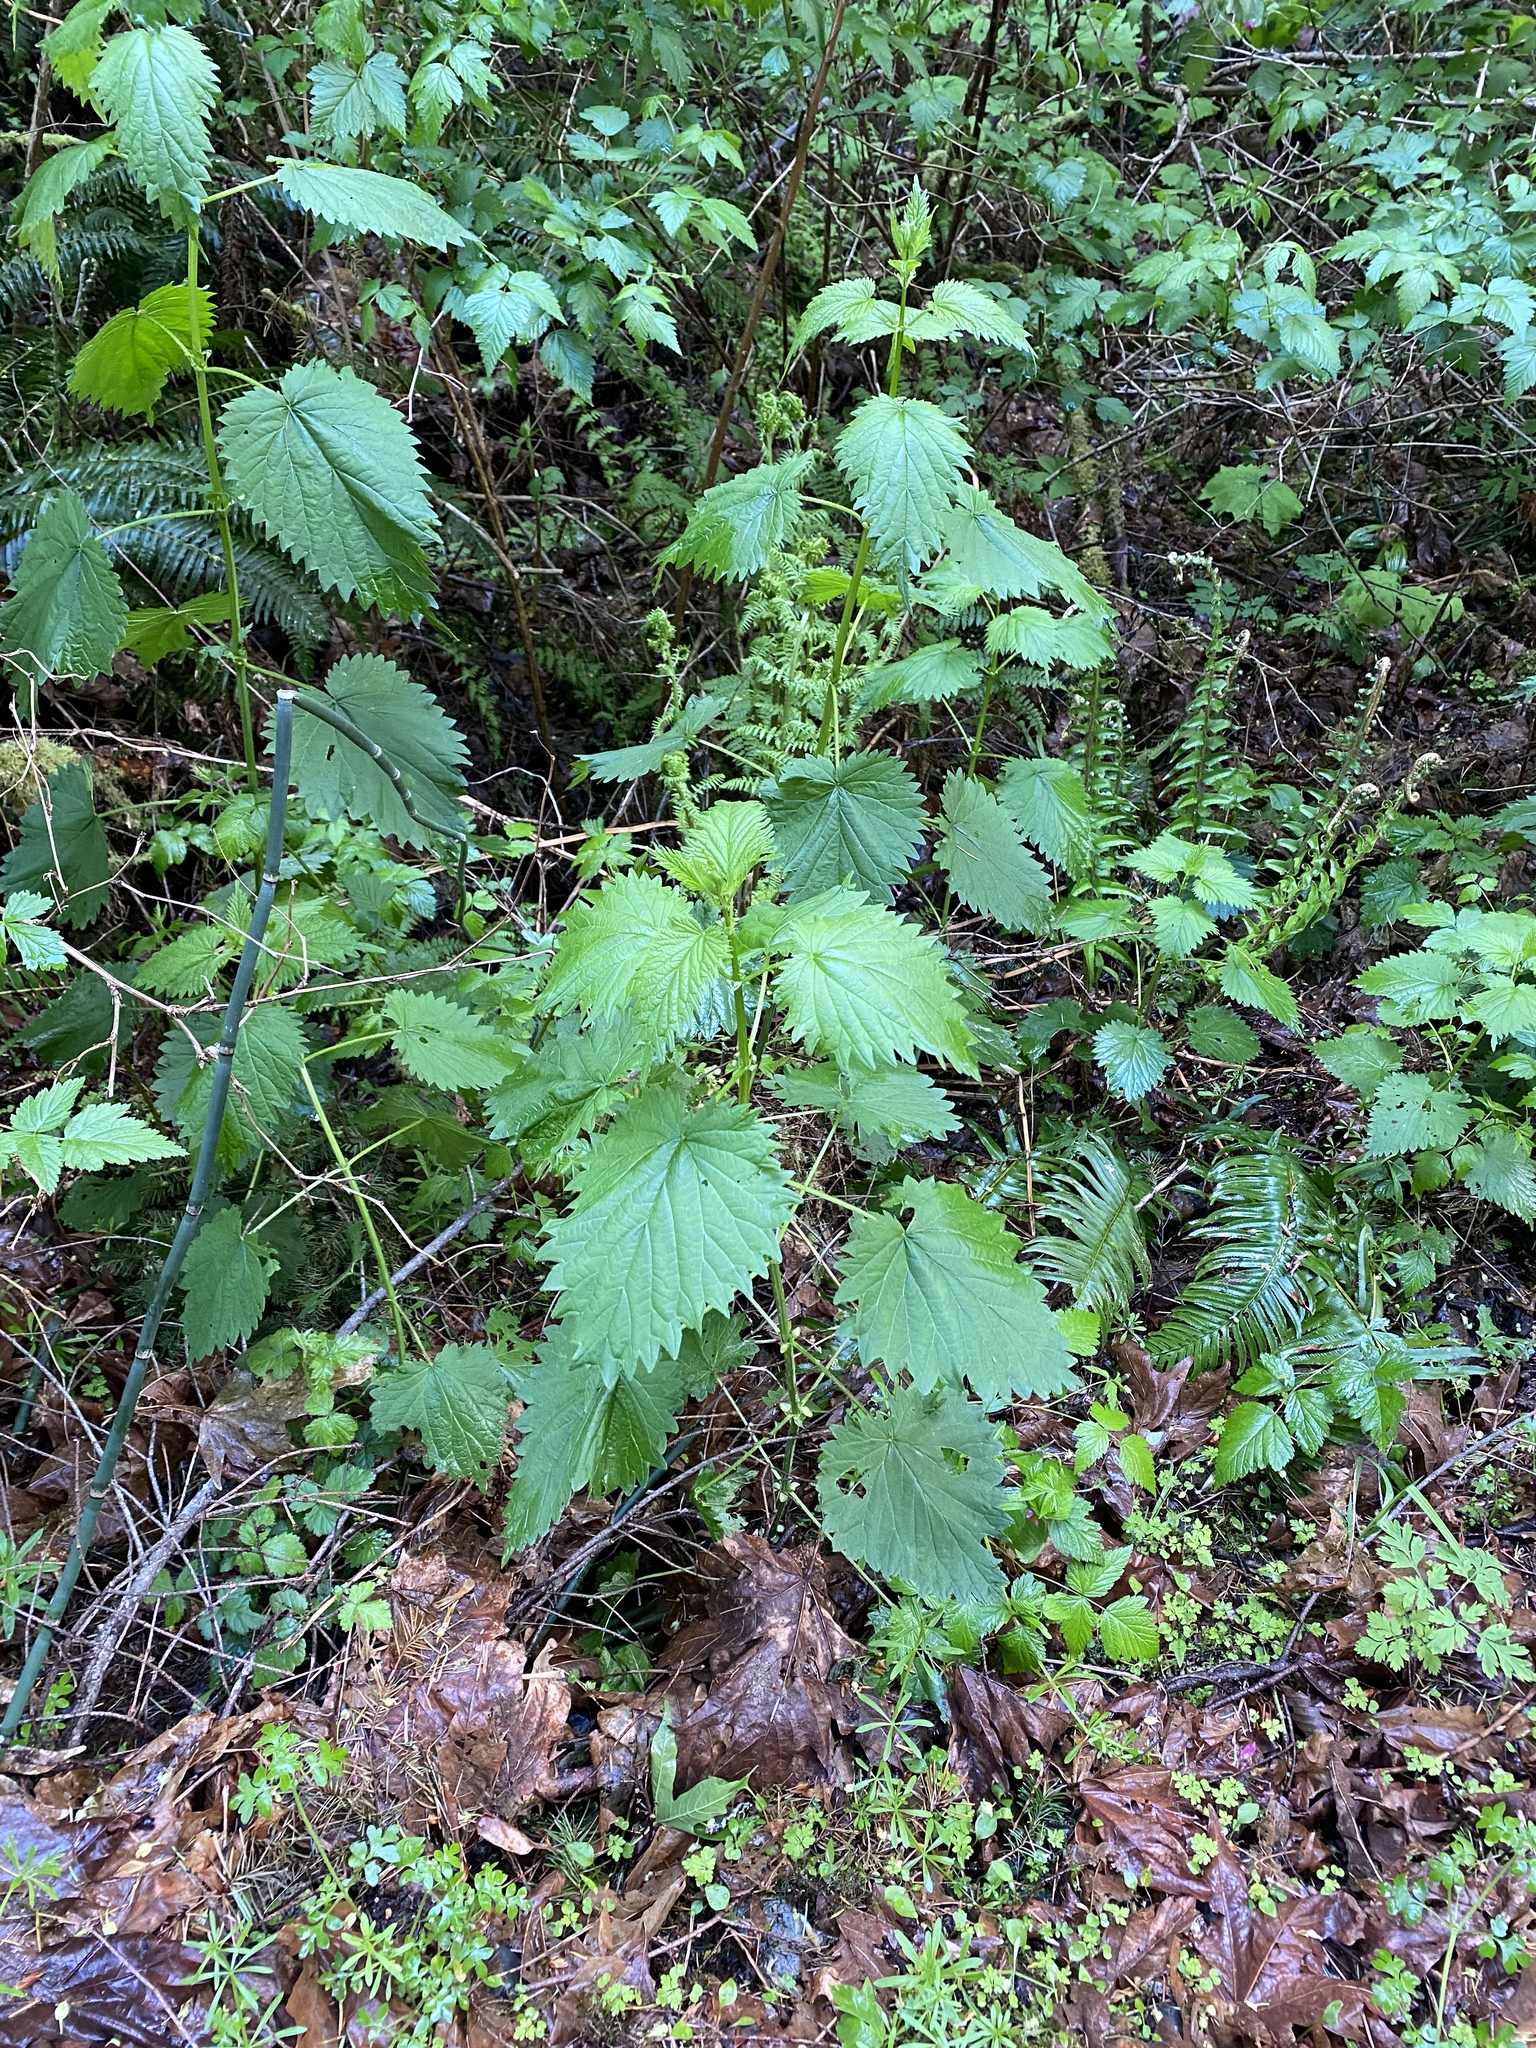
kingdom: Plantae
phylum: Tracheophyta
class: Magnoliopsida
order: Rosales
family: Urticaceae
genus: Urtica
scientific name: Urtica dioica
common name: Common nettle
